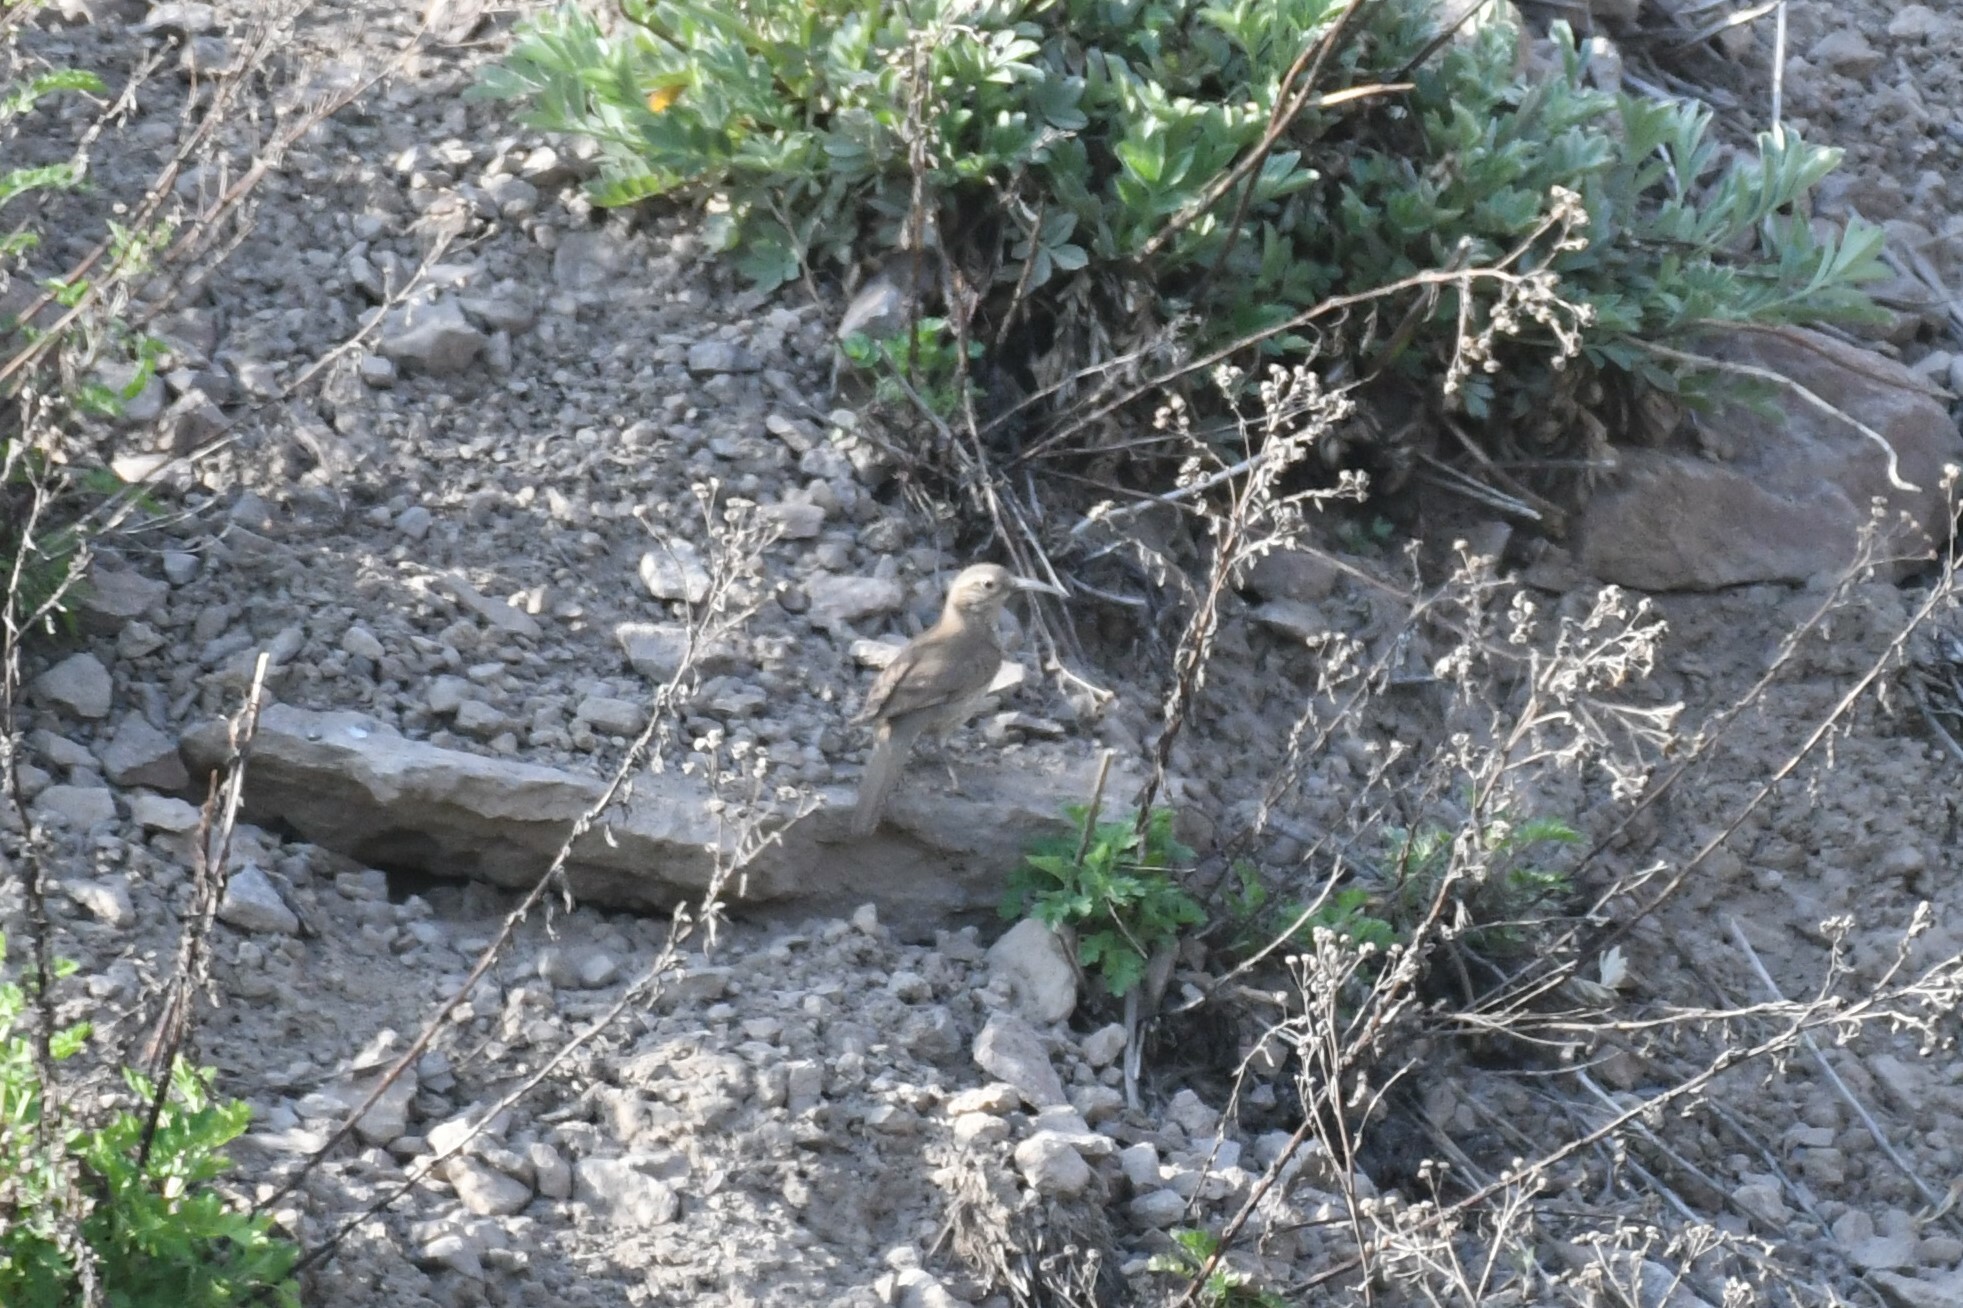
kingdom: Animalia
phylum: Chordata
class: Aves
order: Passeriformes
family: Furnariidae
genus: Upucerthia
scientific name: Upucerthia dumetaria
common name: Scale-throated earthcreeper
